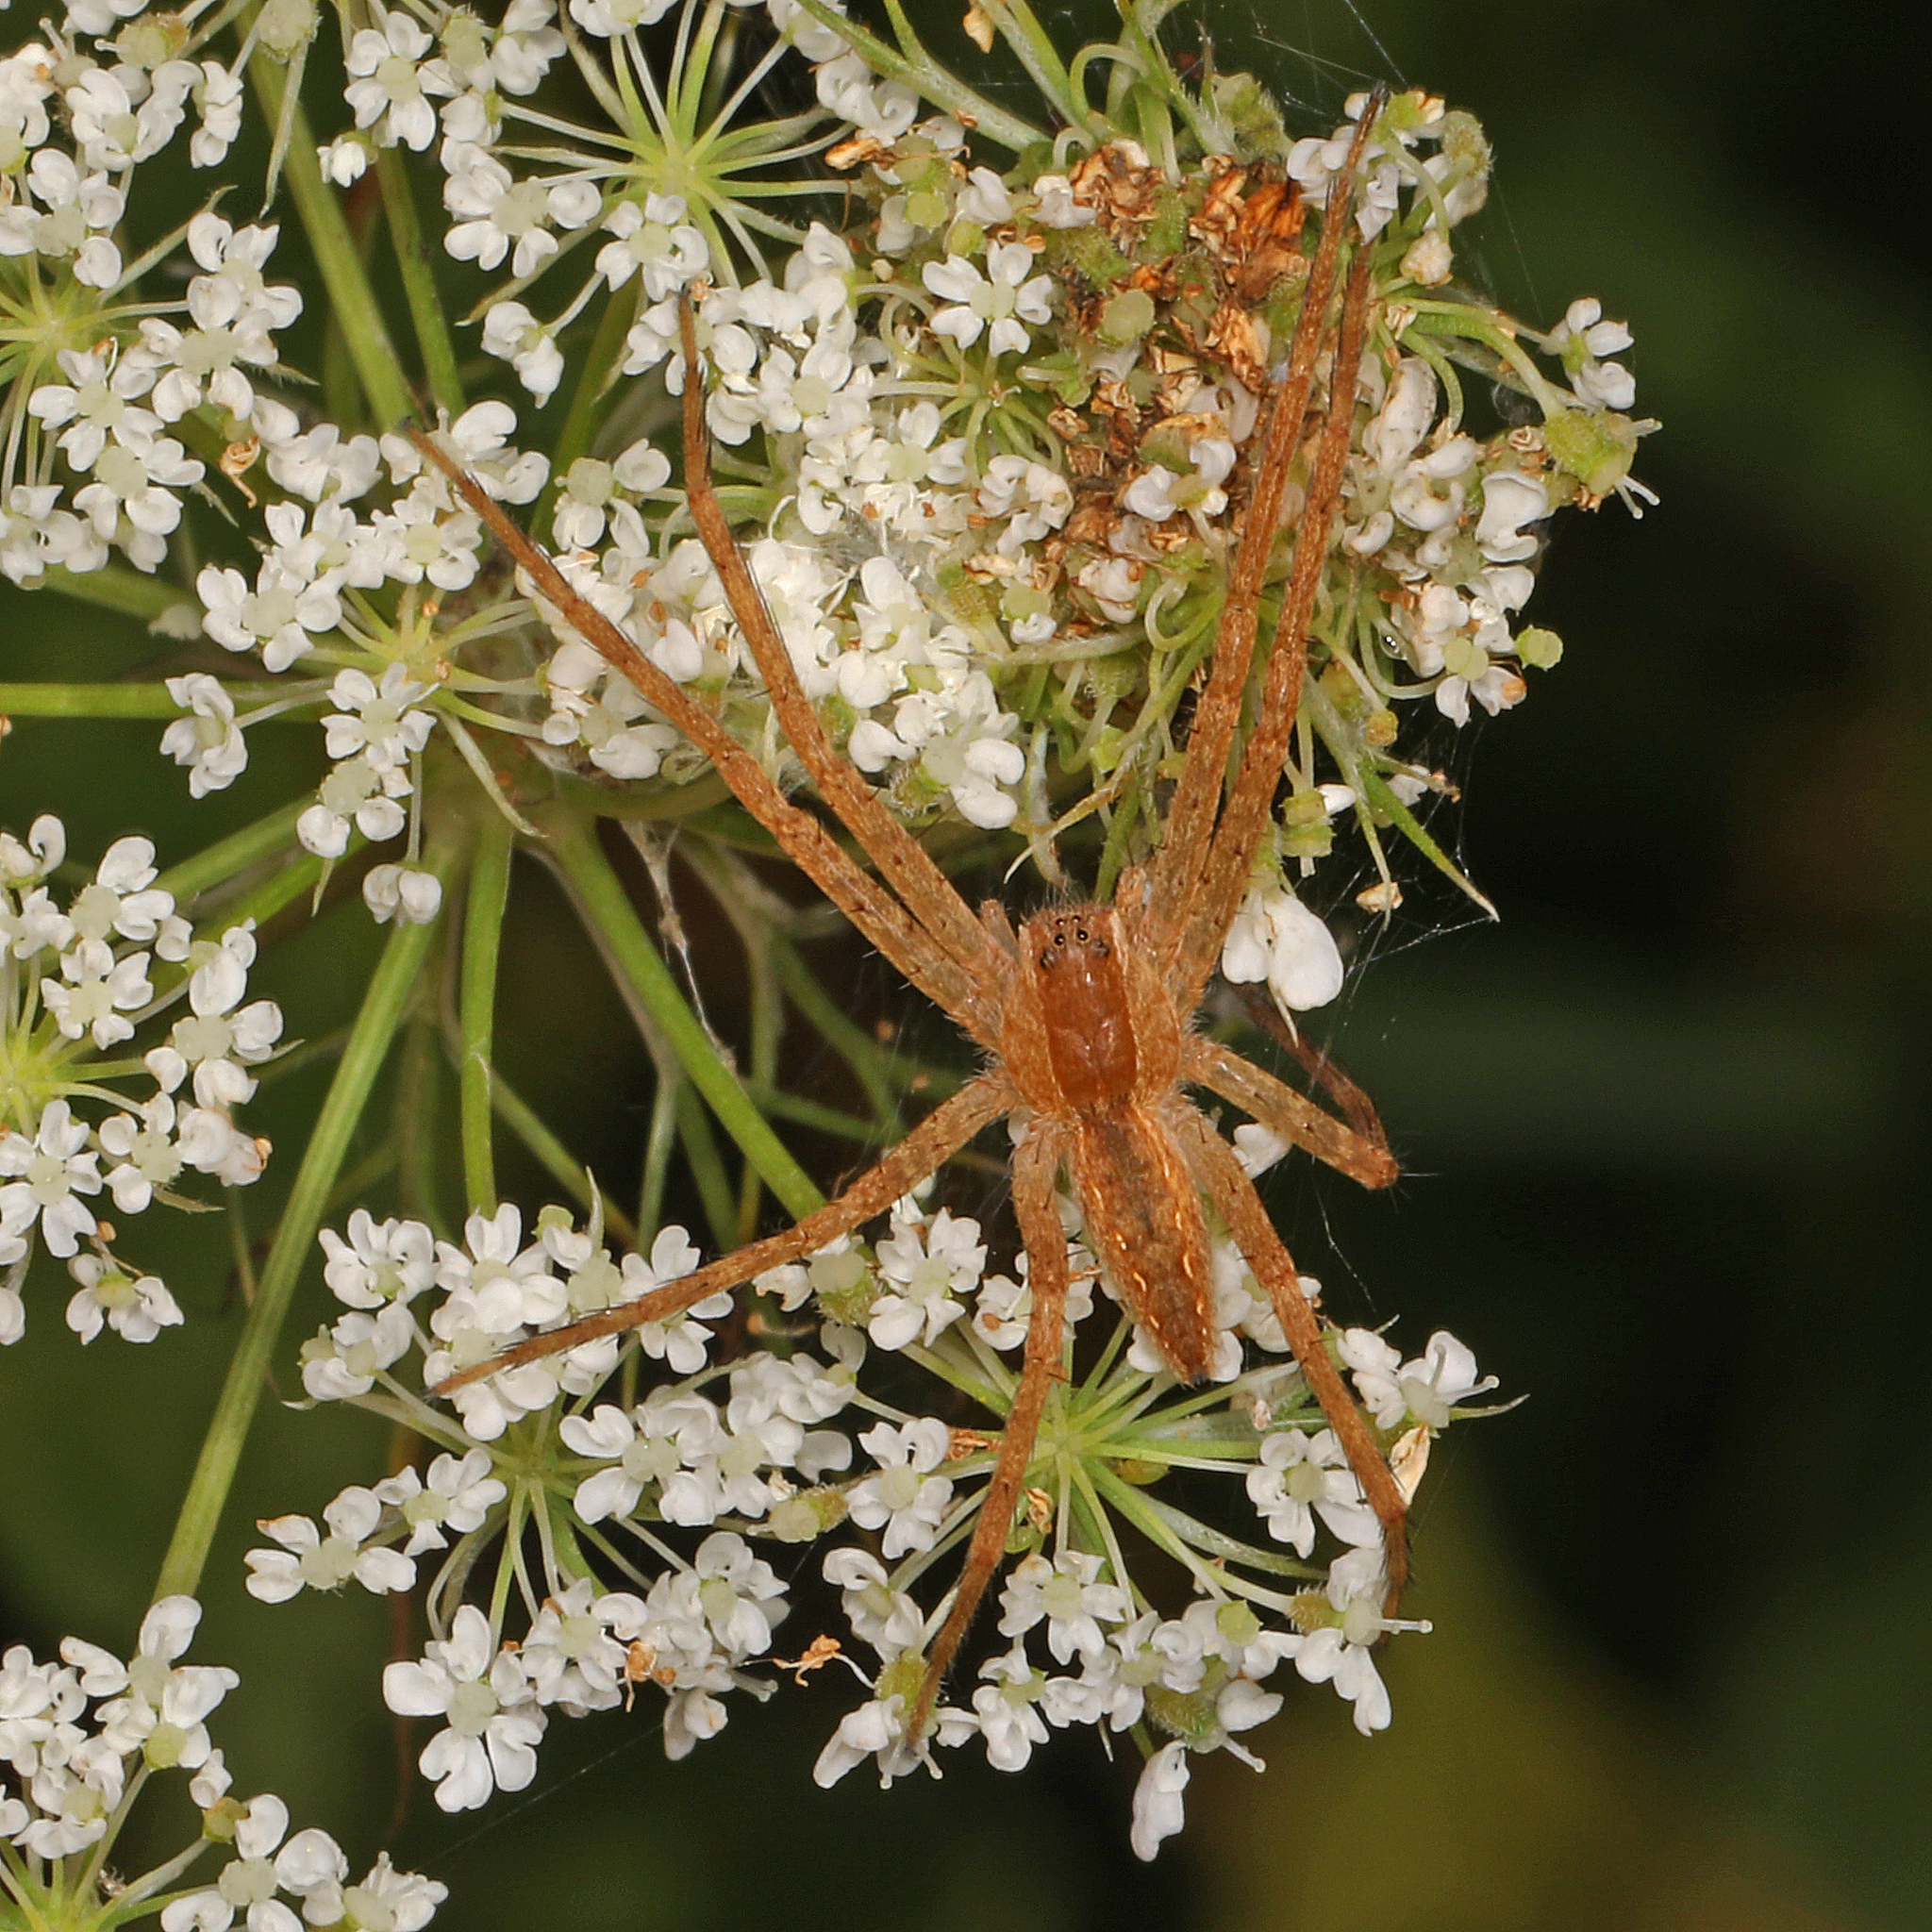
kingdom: Animalia
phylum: Arthropoda
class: Arachnida
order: Araneae
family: Pisauridae
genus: Pisaurina
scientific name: Pisaurina mira
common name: American nursery web spider
